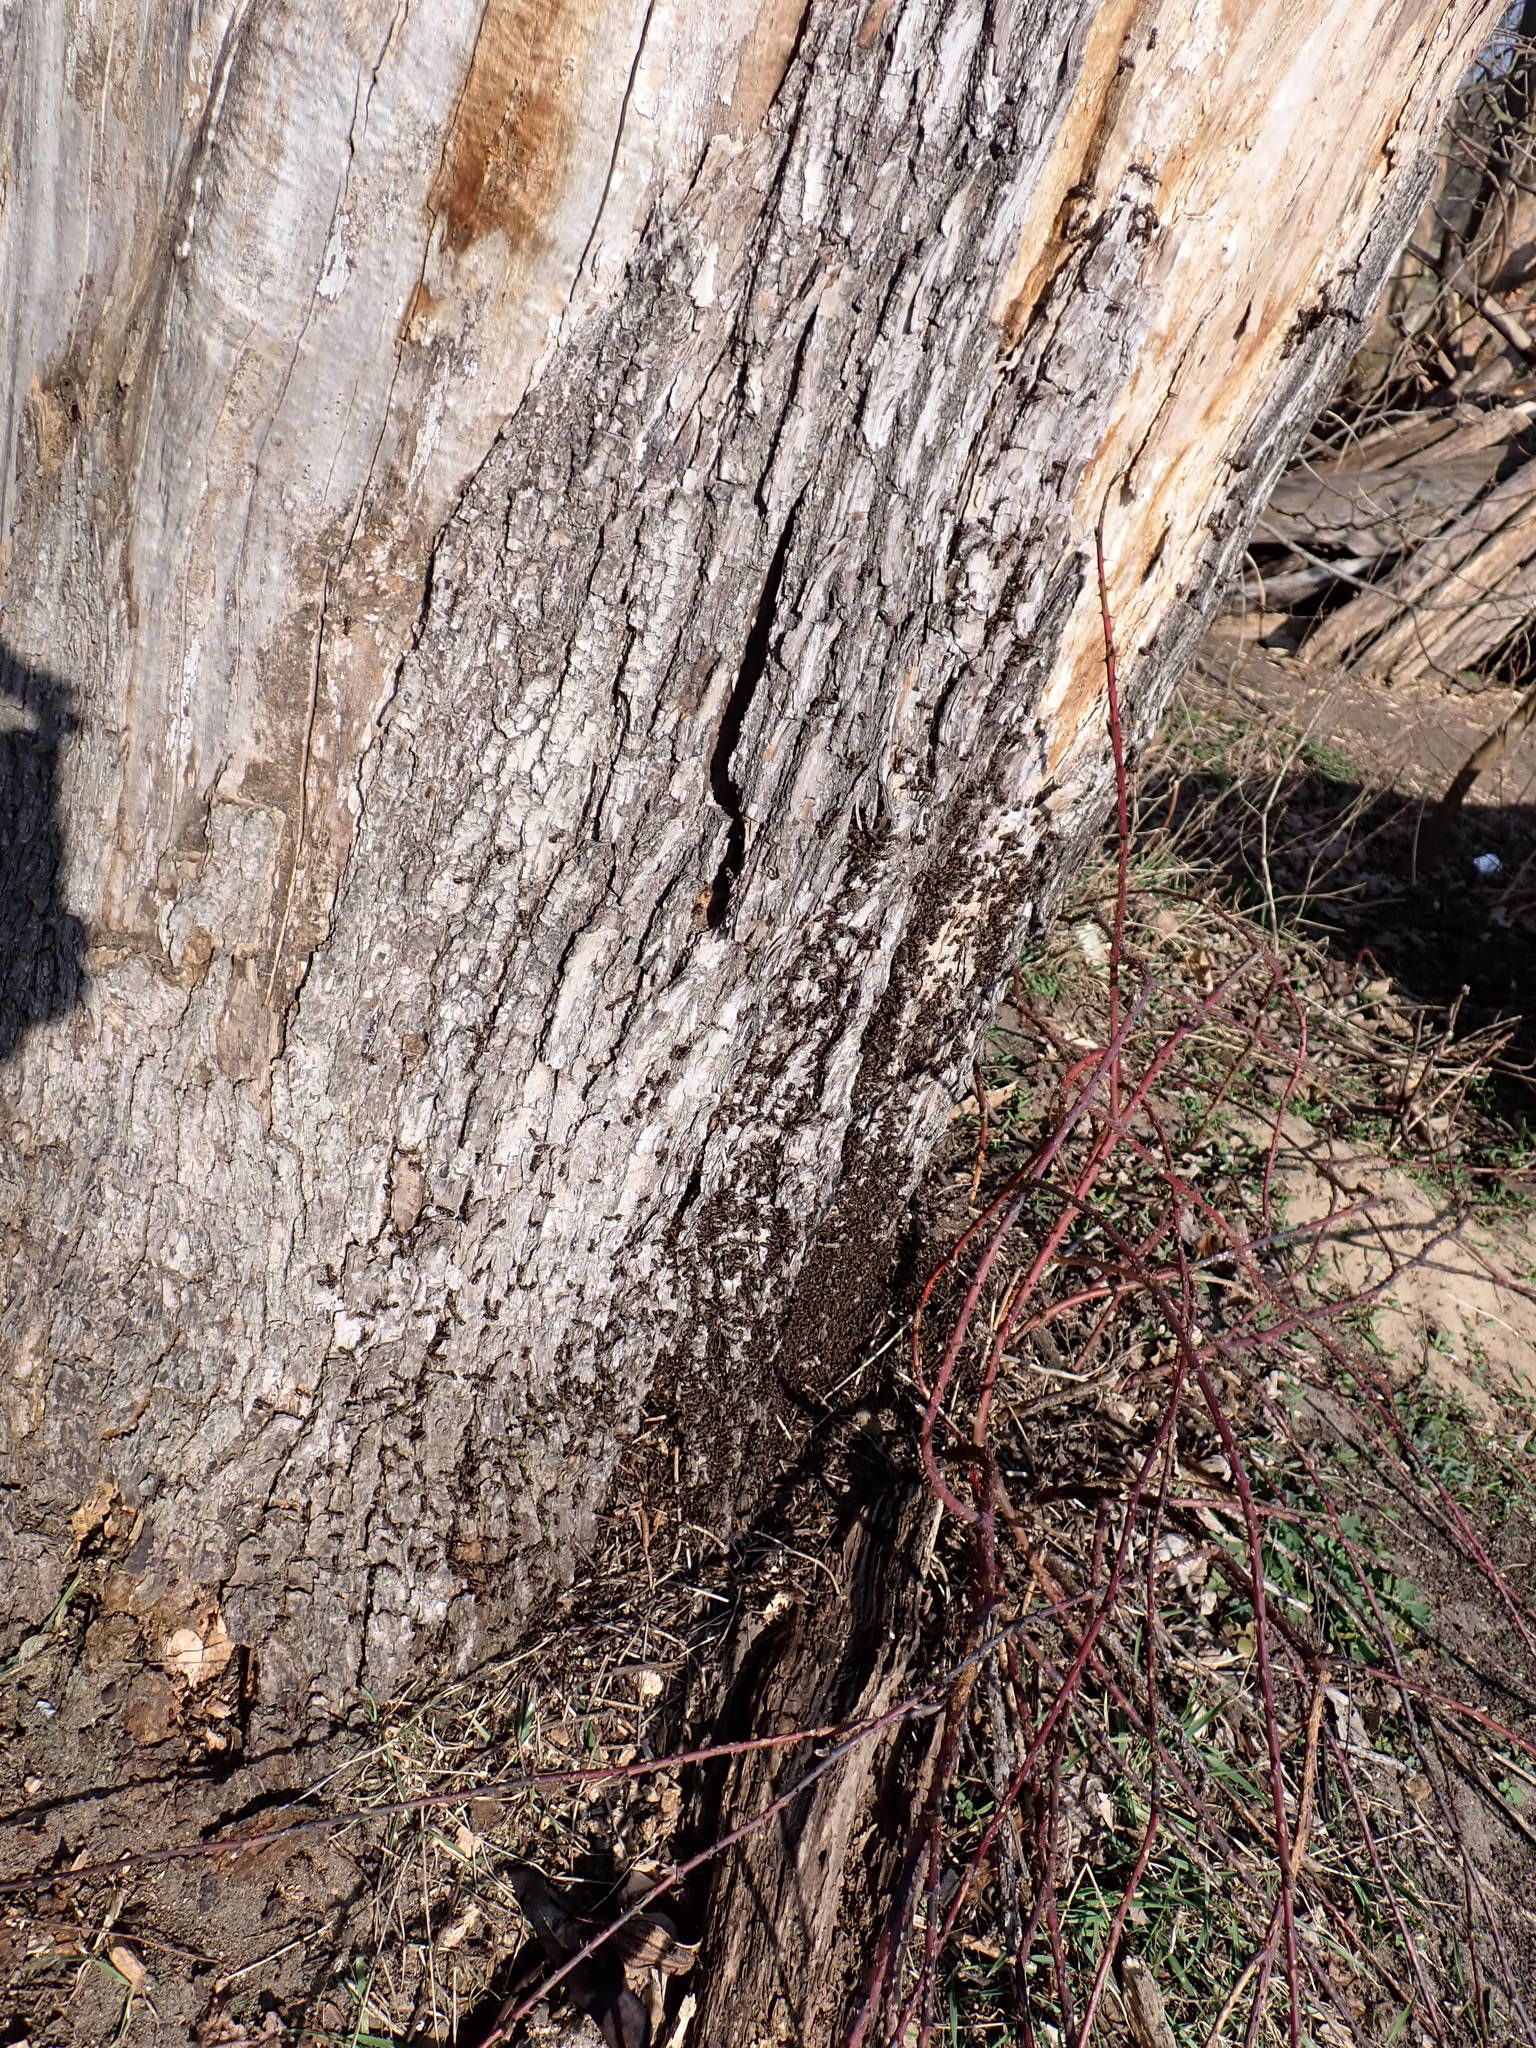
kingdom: Animalia
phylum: Arthropoda
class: Insecta
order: Hymenoptera
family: Formicidae
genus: Formica
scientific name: Formica
